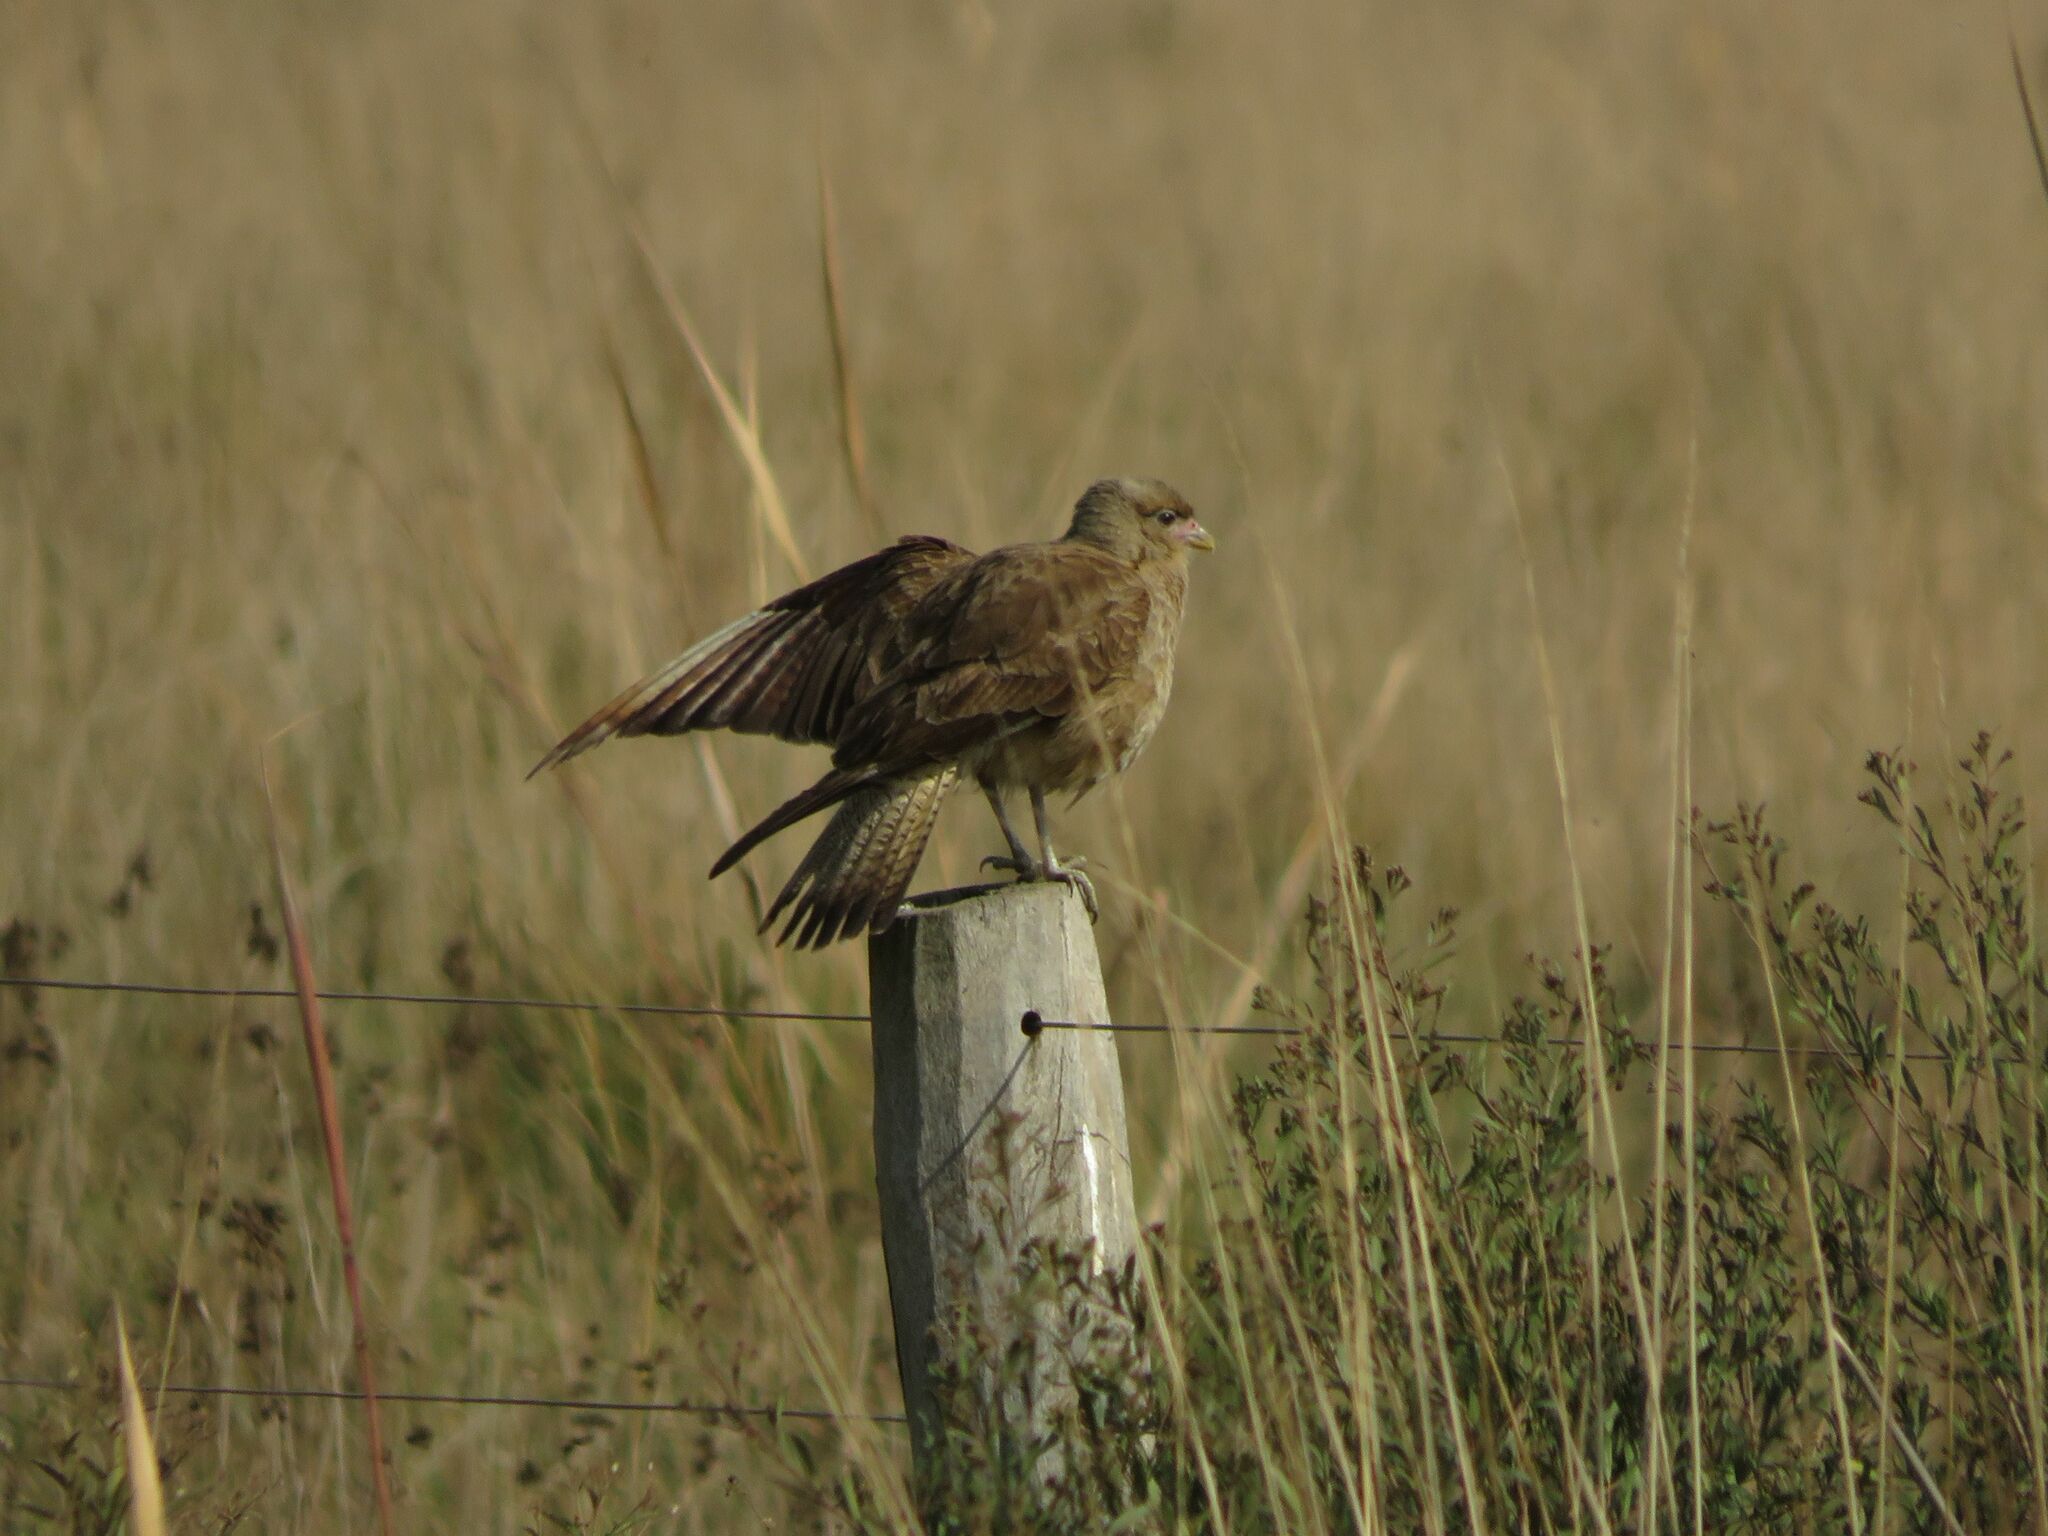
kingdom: Animalia
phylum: Chordata
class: Aves
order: Falconiformes
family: Falconidae
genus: Daptrius
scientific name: Daptrius
